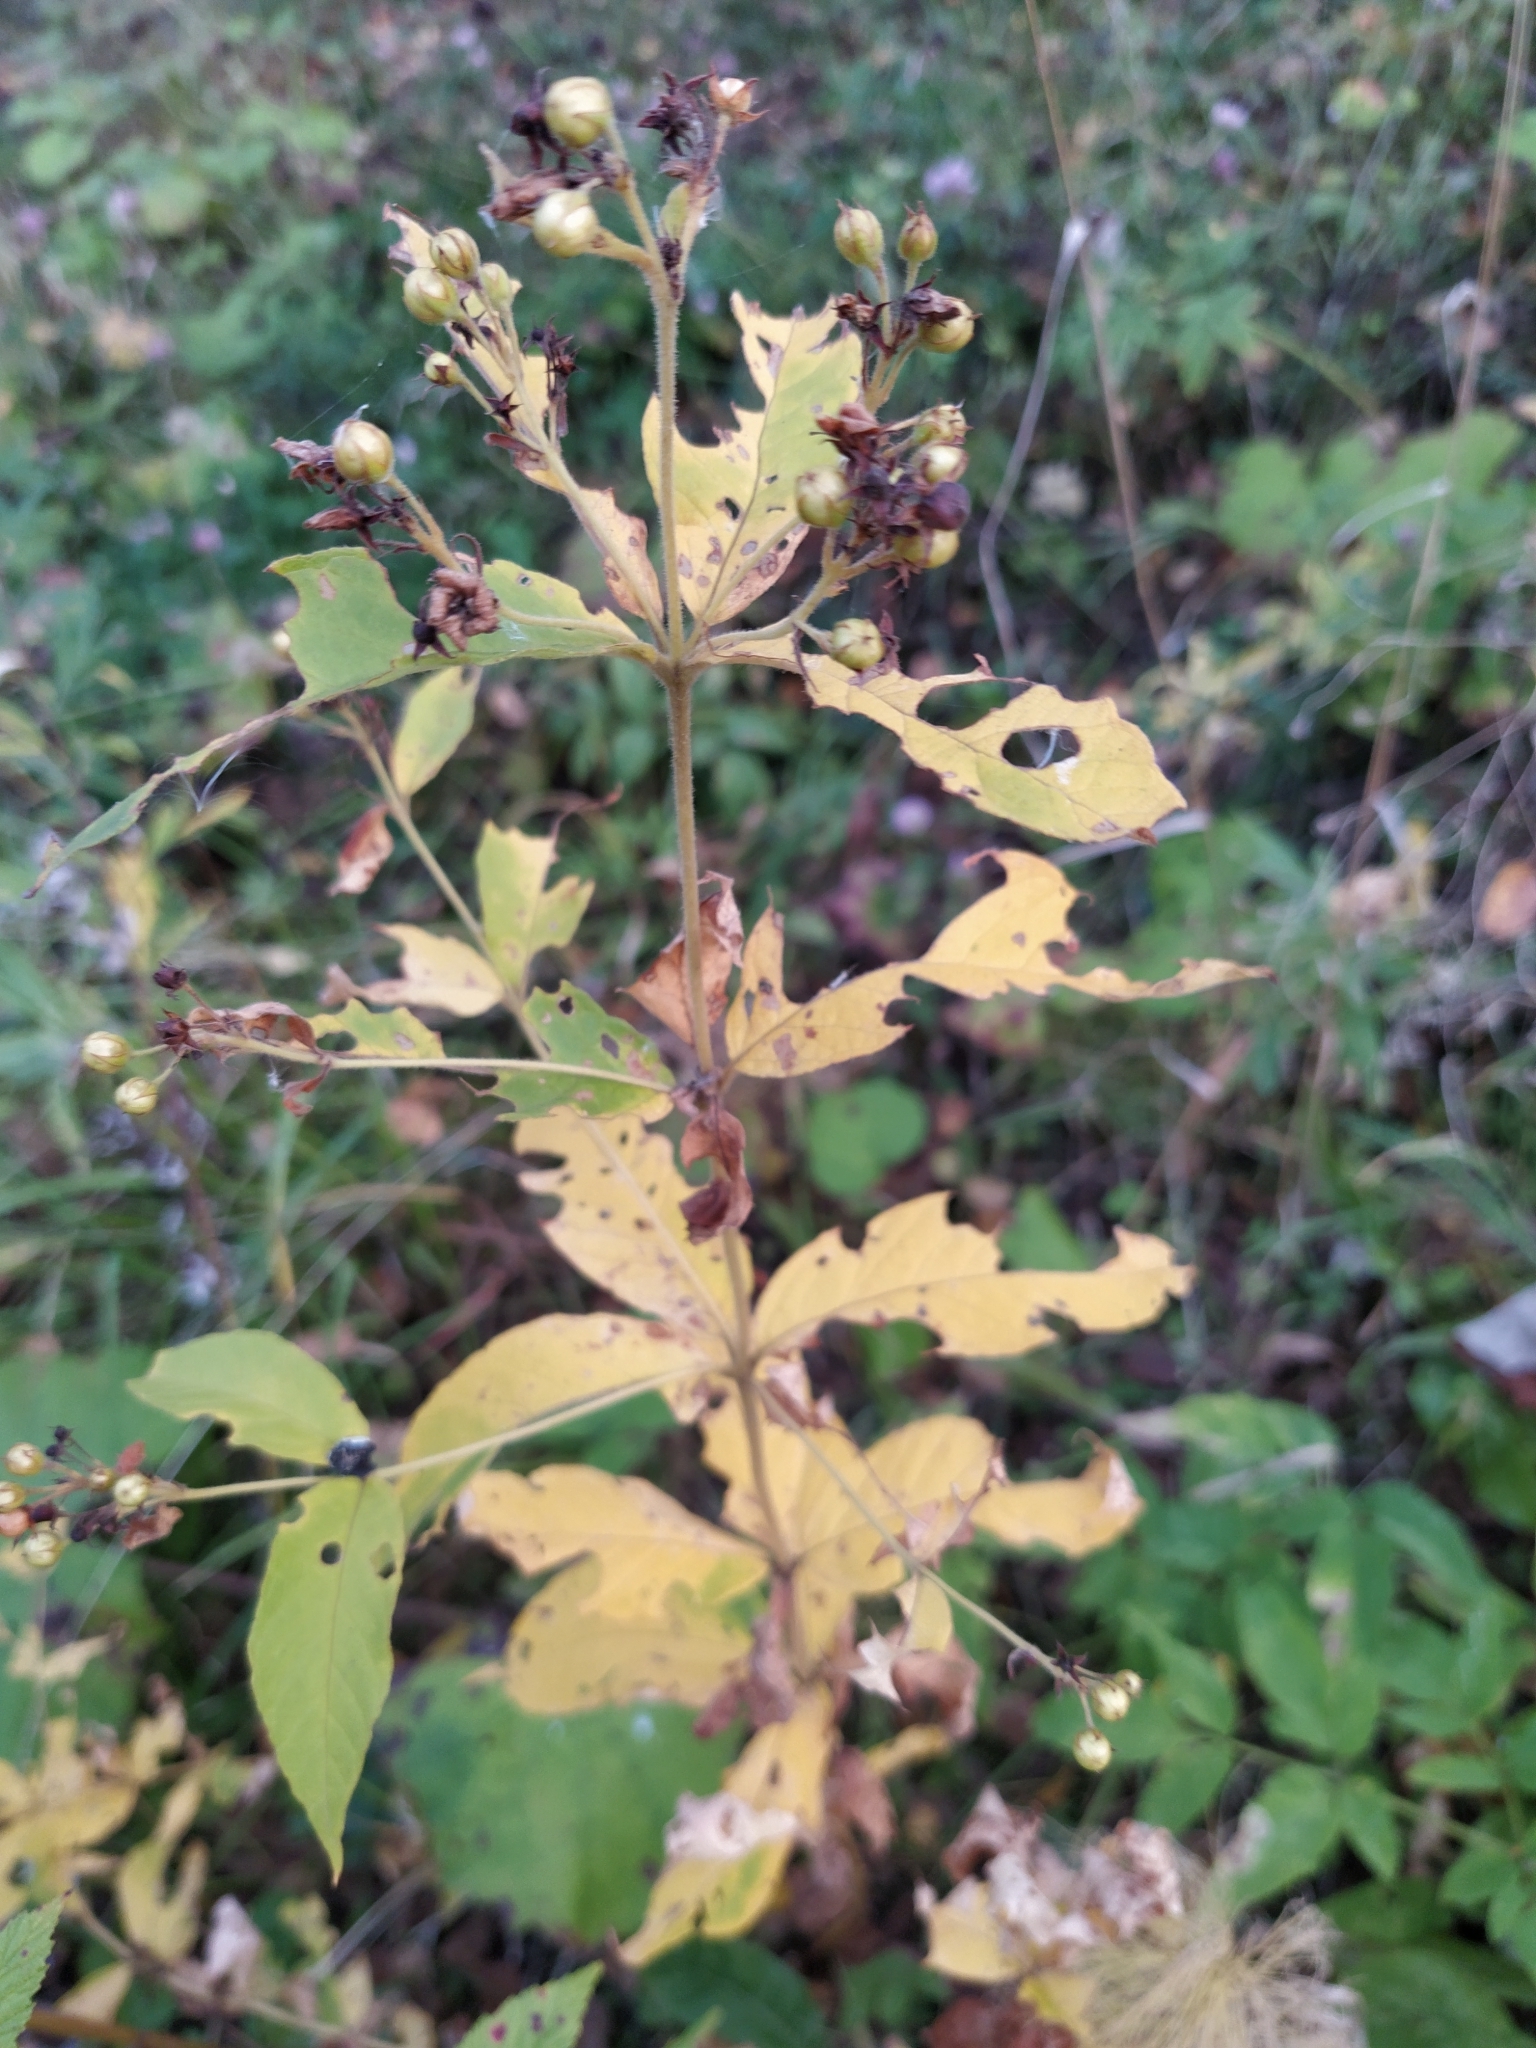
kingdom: Plantae
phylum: Tracheophyta
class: Magnoliopsida
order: Ericales
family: Primulaceae
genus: Lysimachia
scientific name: Lysimachia vulgaris
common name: Yellow loosestrife
